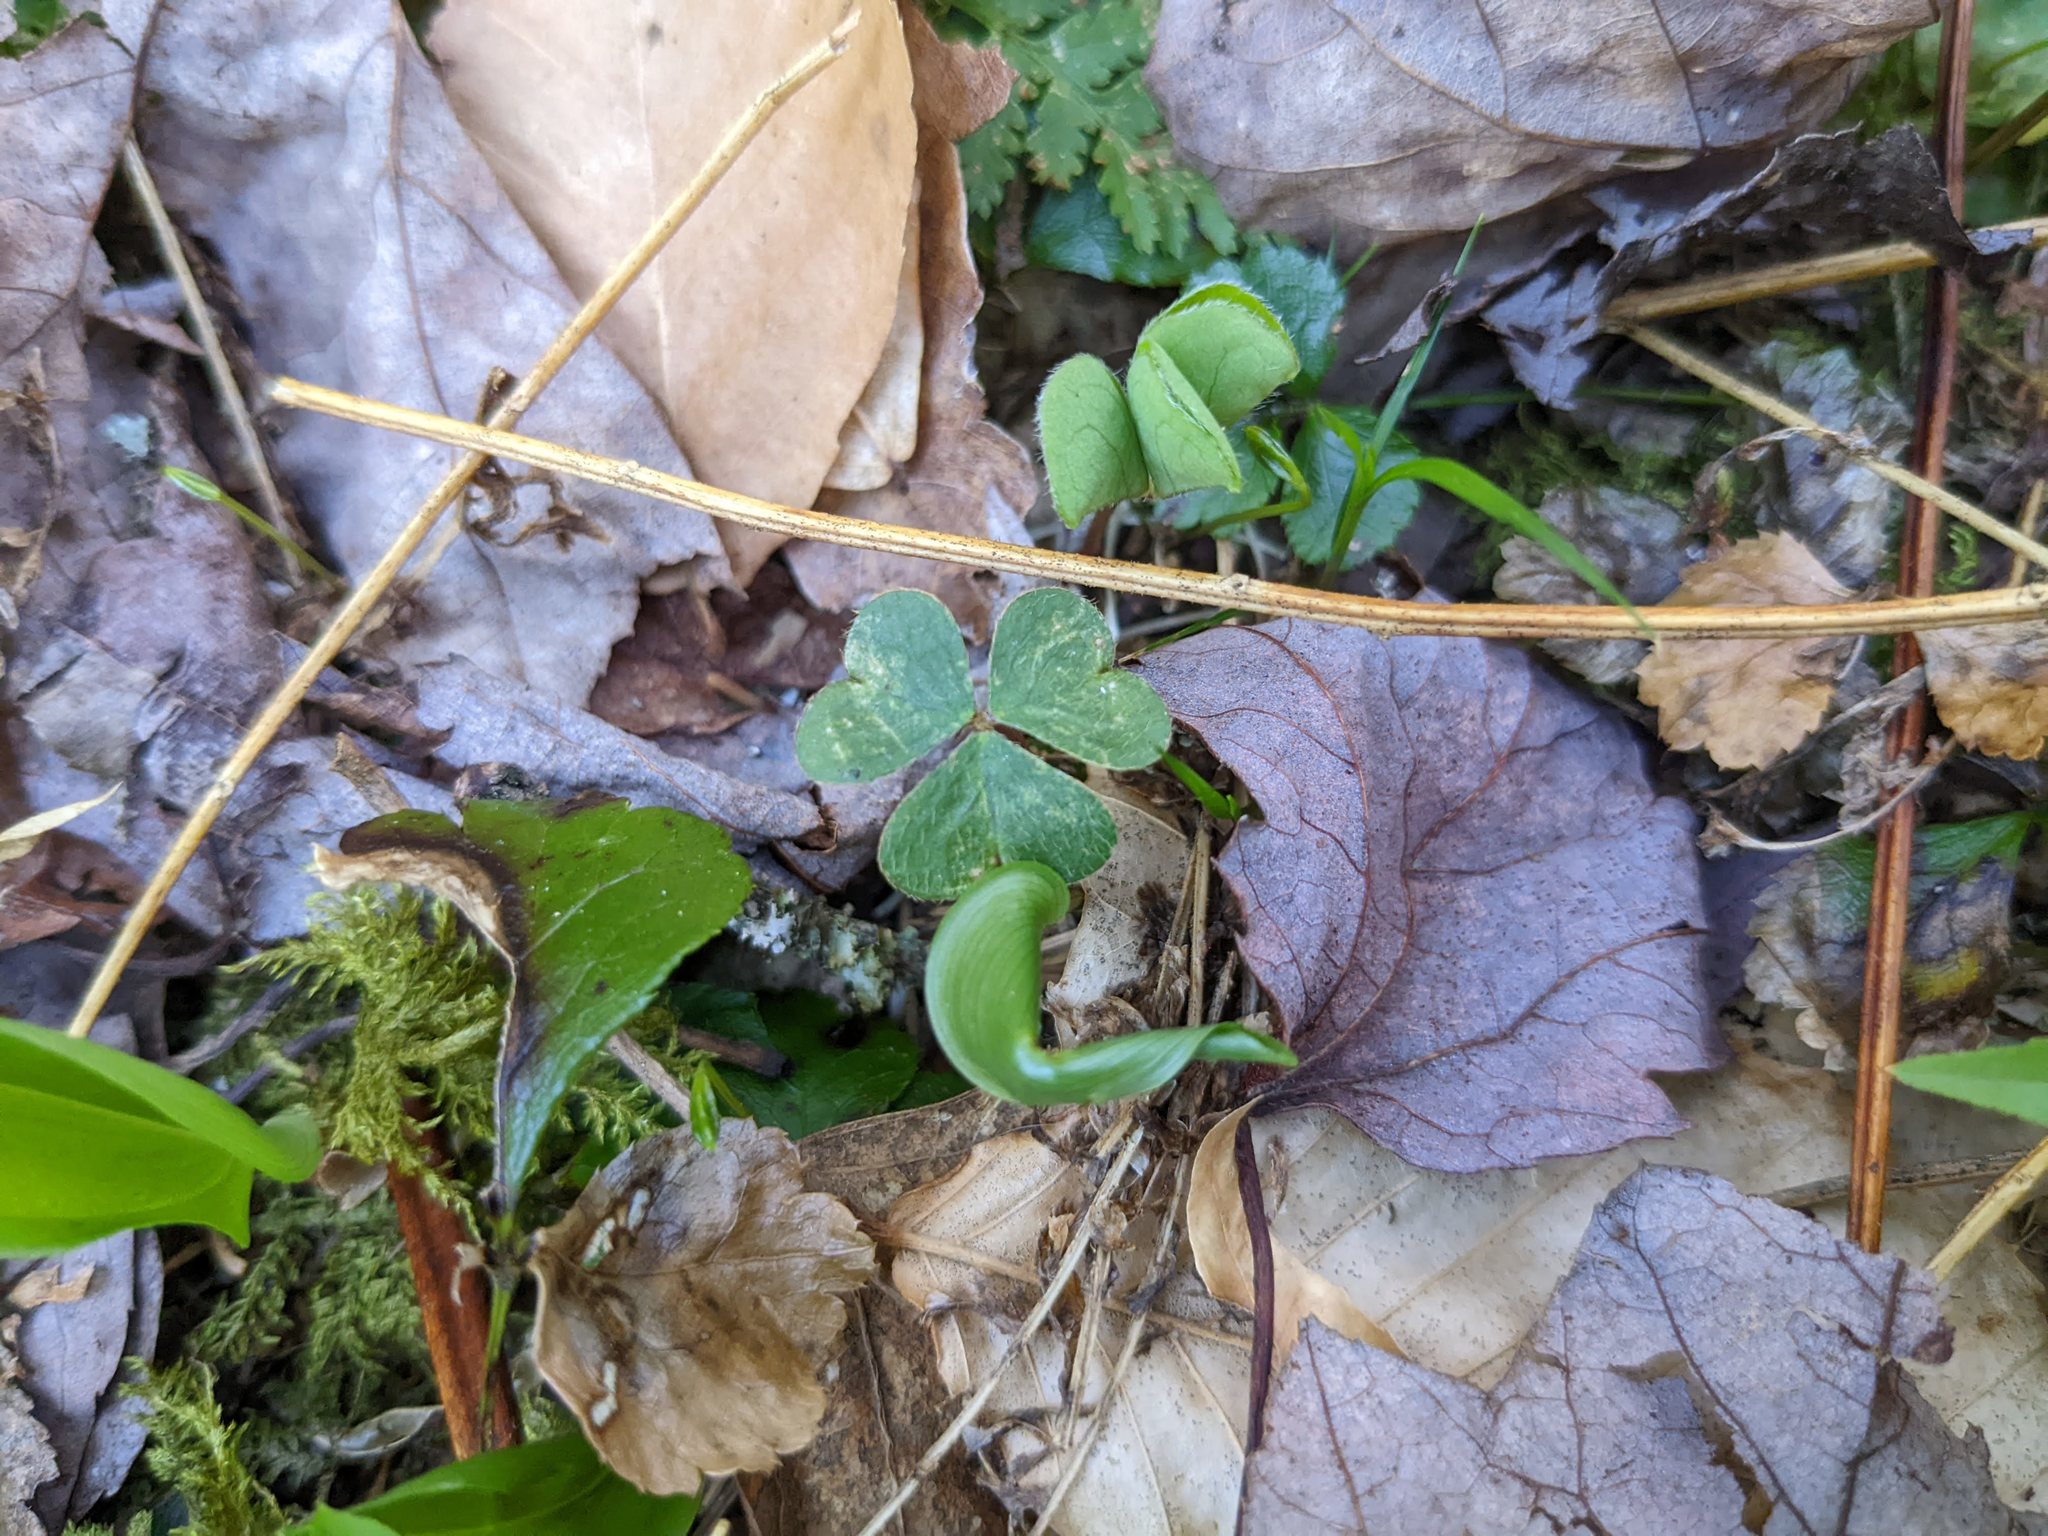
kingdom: Plantae
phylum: Tracheophyta
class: Magnoliopsida
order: Oxalidales
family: Oxalidaceae
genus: Oxalis
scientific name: Oxalis montana
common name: American wood-sorrel
